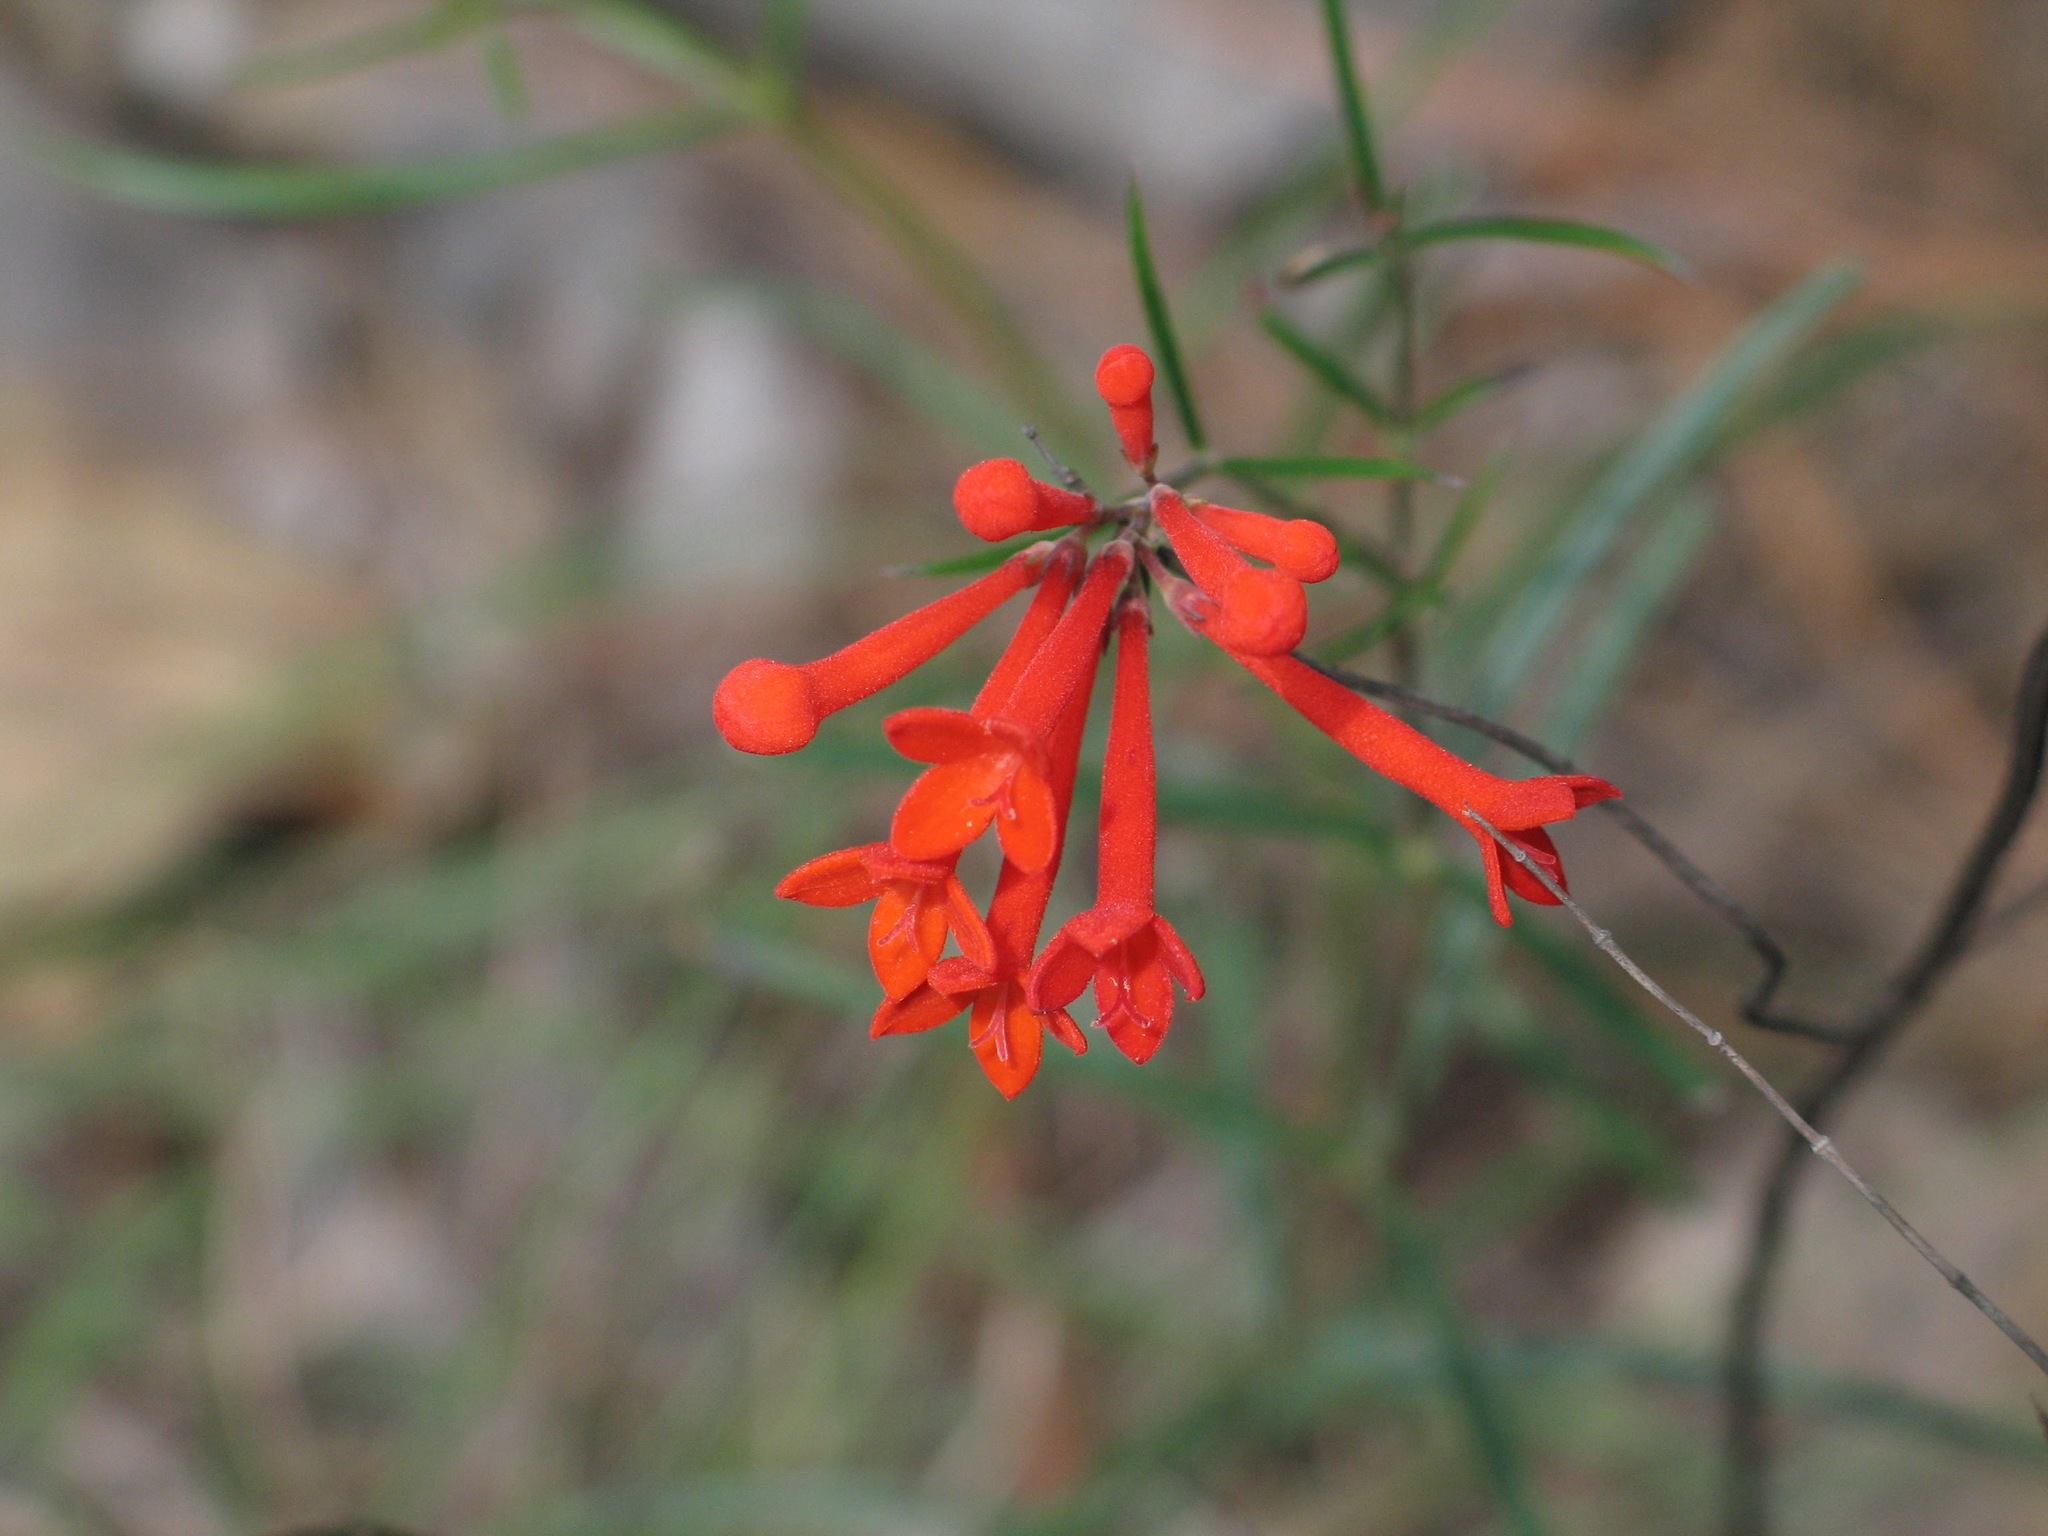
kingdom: Plantae
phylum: Tracheophyta
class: Magnoliopsida
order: Gentianales
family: Rubiaceae
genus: Bouvardia
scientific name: Bouvardia ternifolia
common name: Scarlet bouvardia
